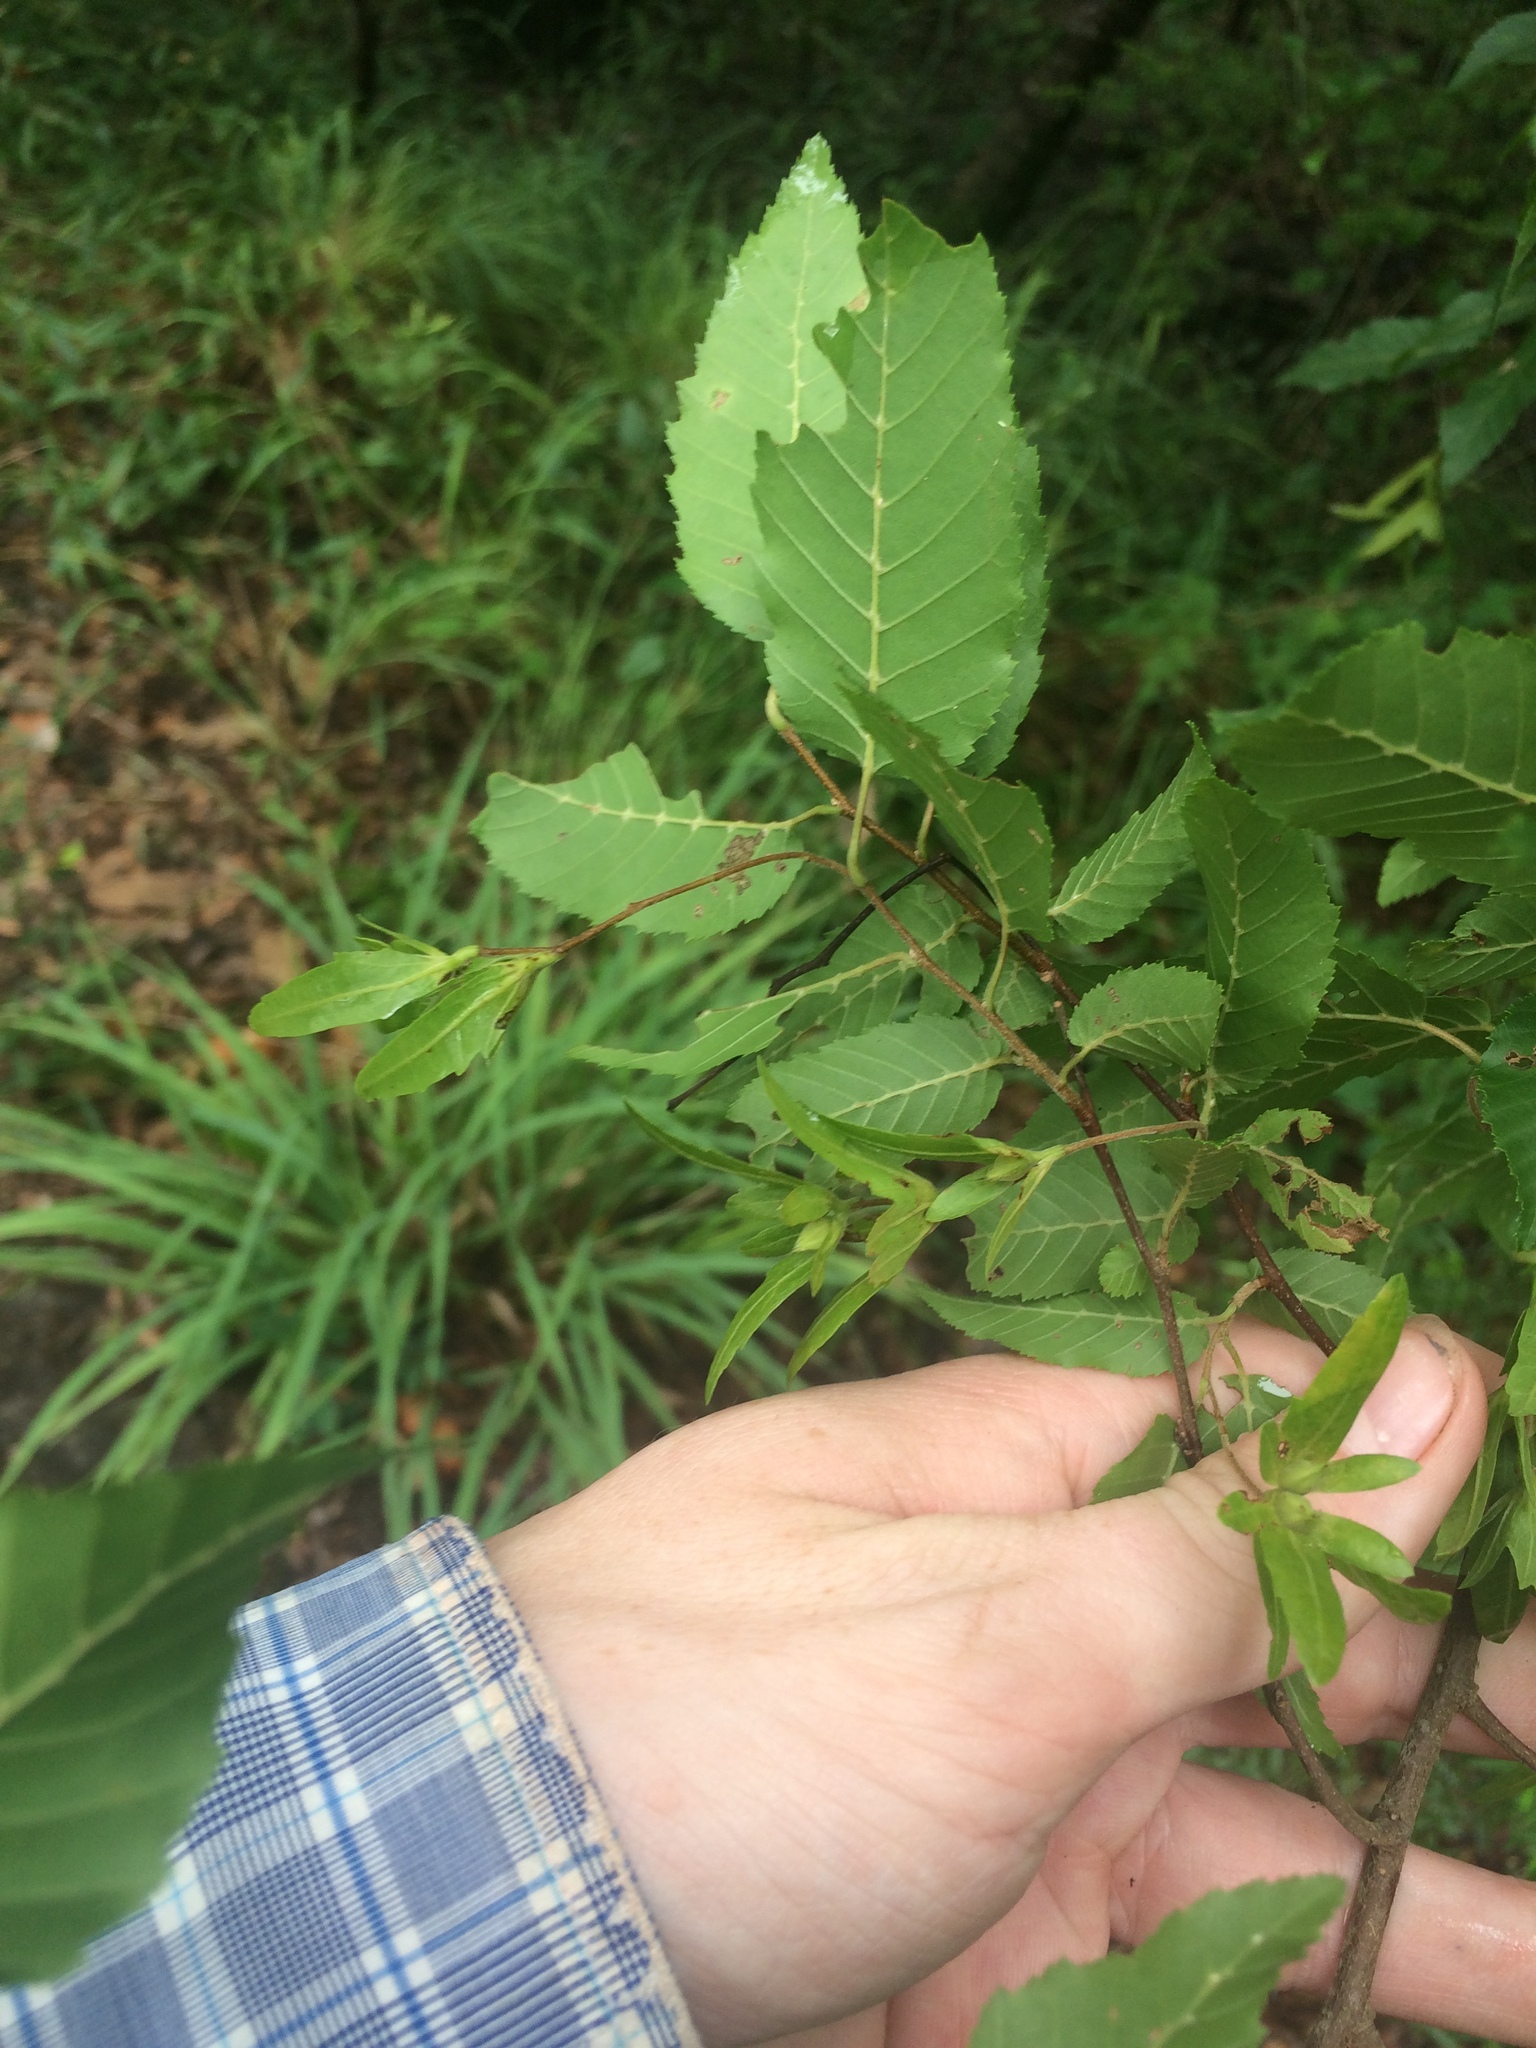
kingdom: Plantae
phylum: Tracheophyta
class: Magnoliopsida
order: Fagales
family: Betulaceae
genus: Carpinus
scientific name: Carpinus caroliniana
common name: American hornbeam
